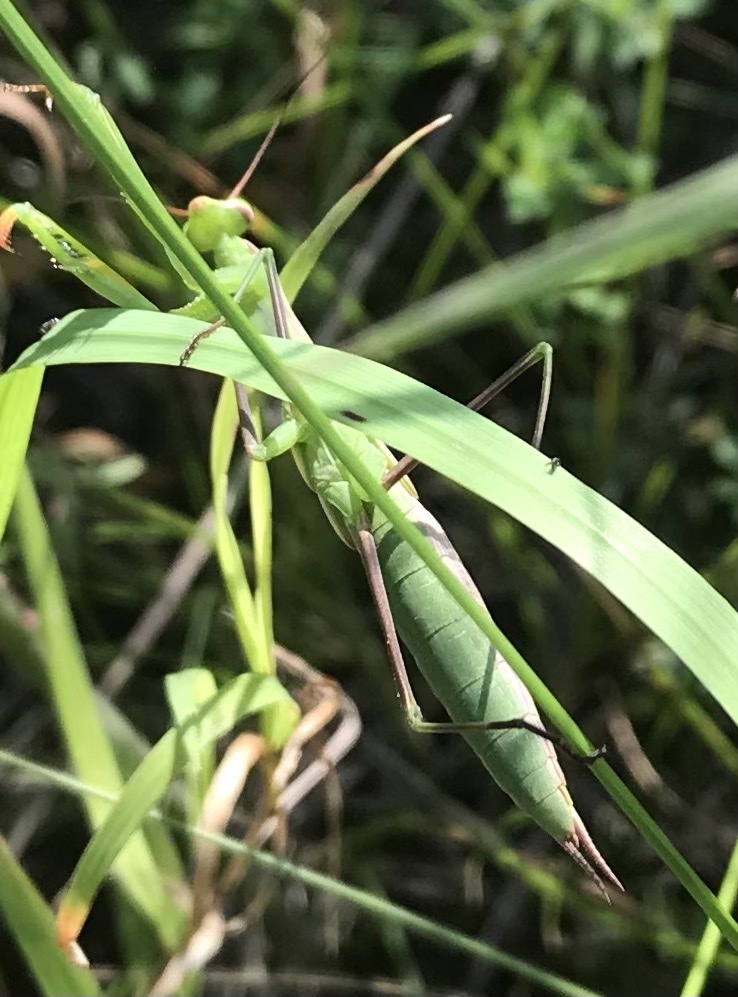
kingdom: Animalia
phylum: Arthropoda
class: Insecta
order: Mantodea
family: Mantidae
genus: Mantis
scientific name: Mantis religiosa
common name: Praying mantis
